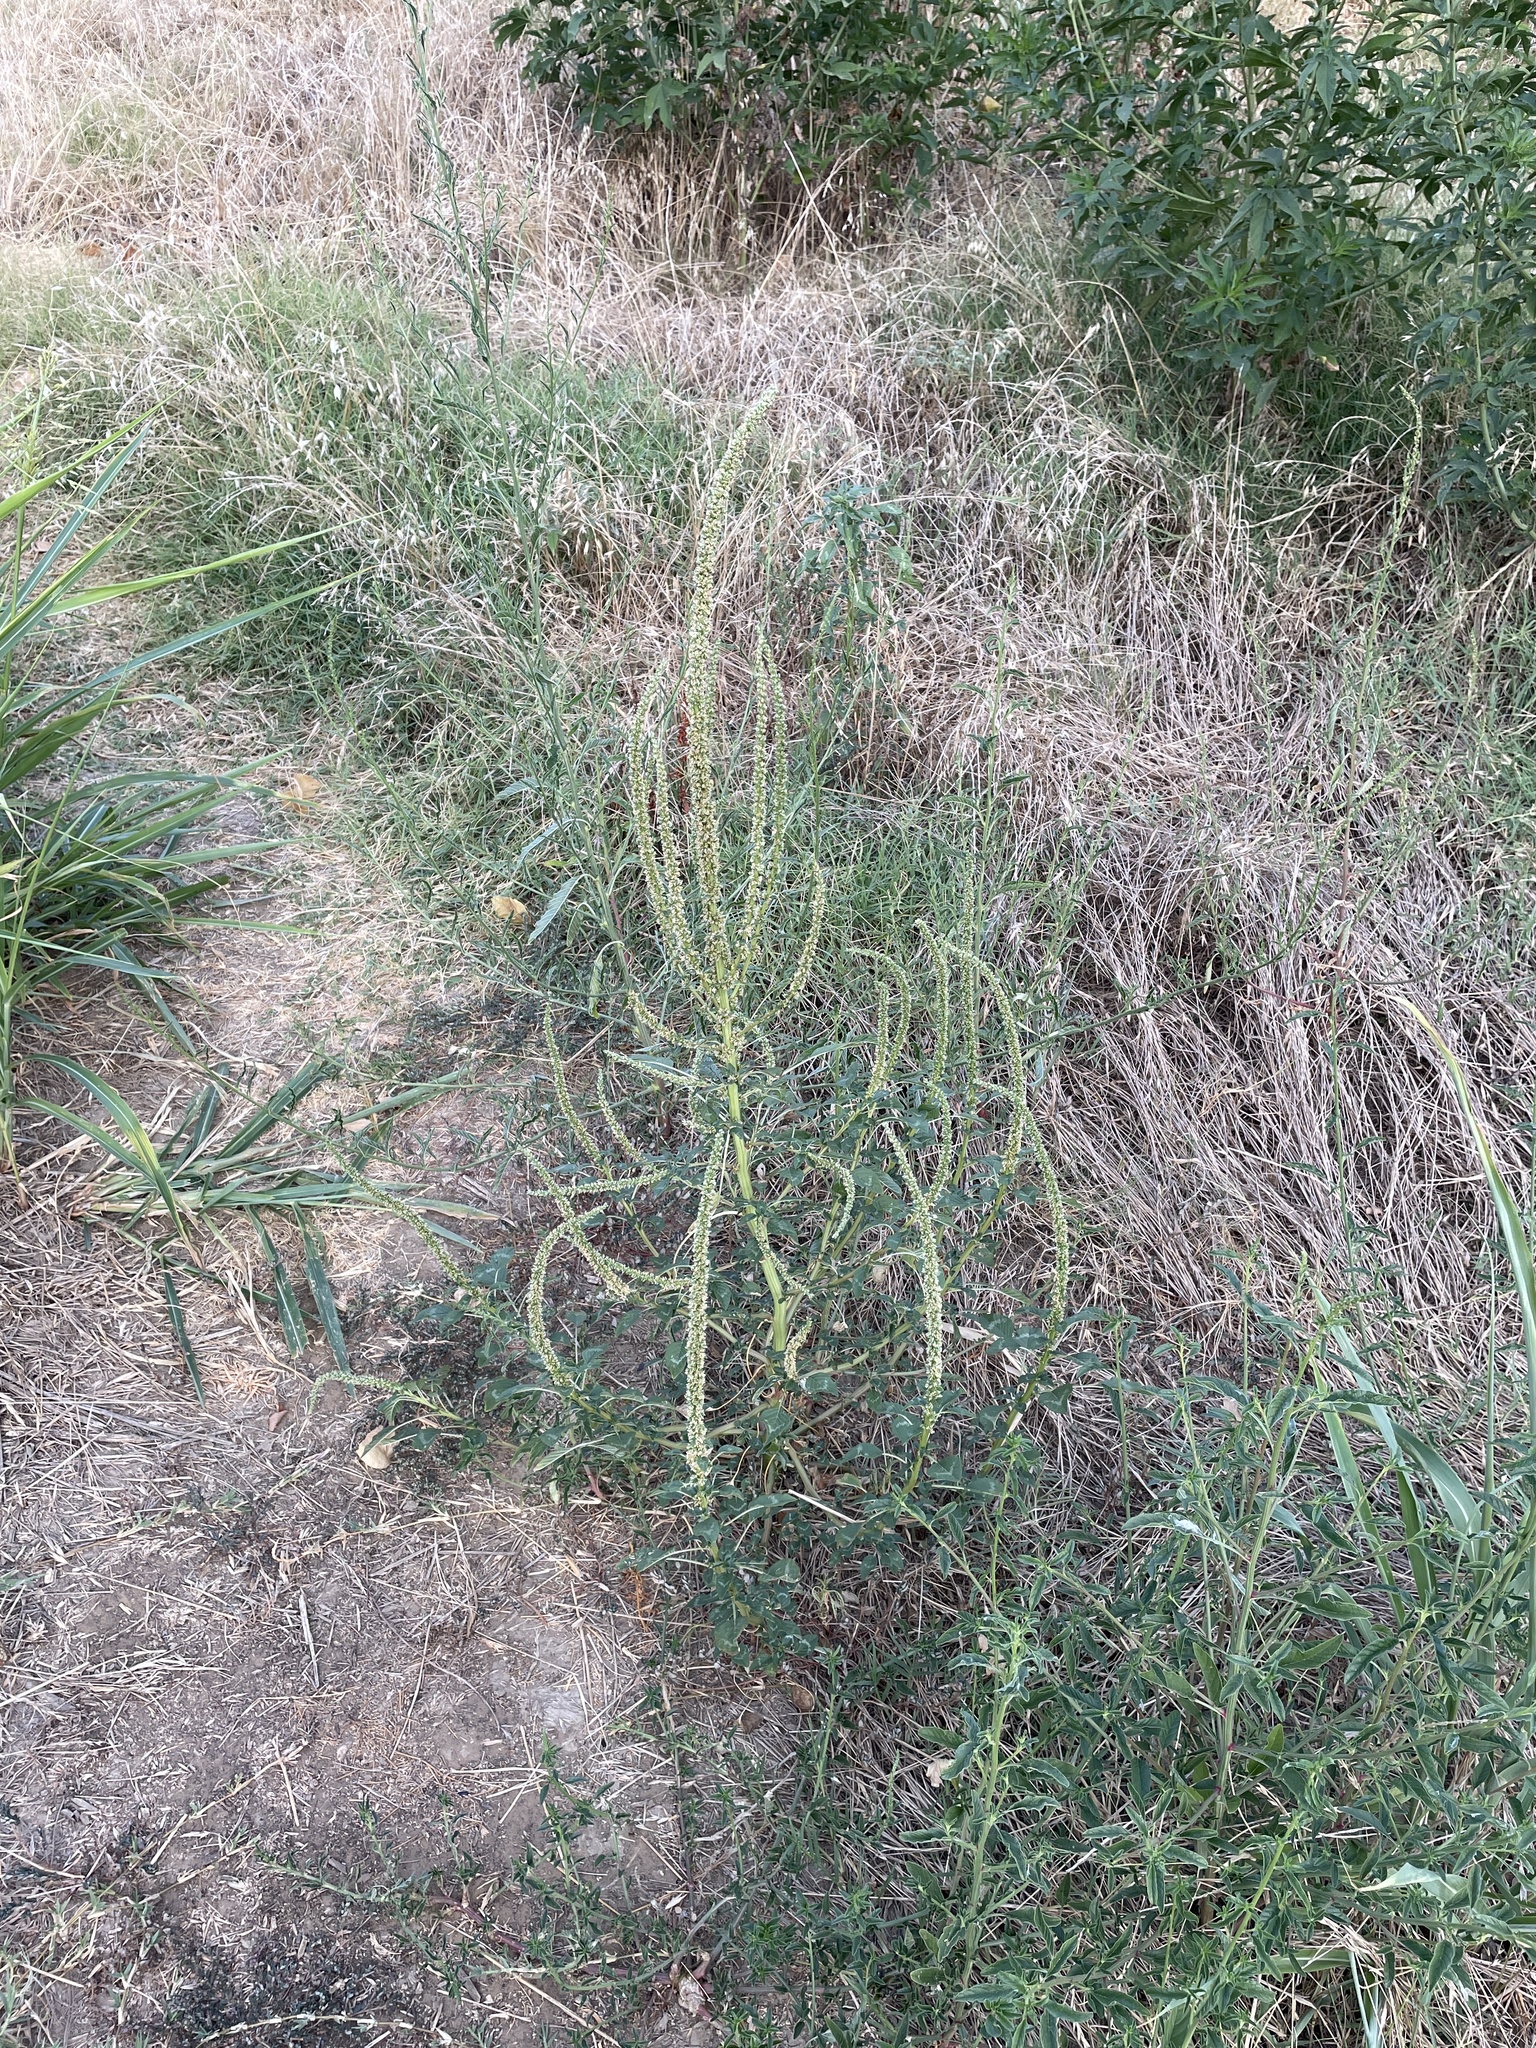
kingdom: Plantae
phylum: Tracheophyta
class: Magnoliopsida
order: Caryophyllales
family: Amaranthaceae
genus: Amaranthus
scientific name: Amaranthus palmeri
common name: Dioecious amaranth
